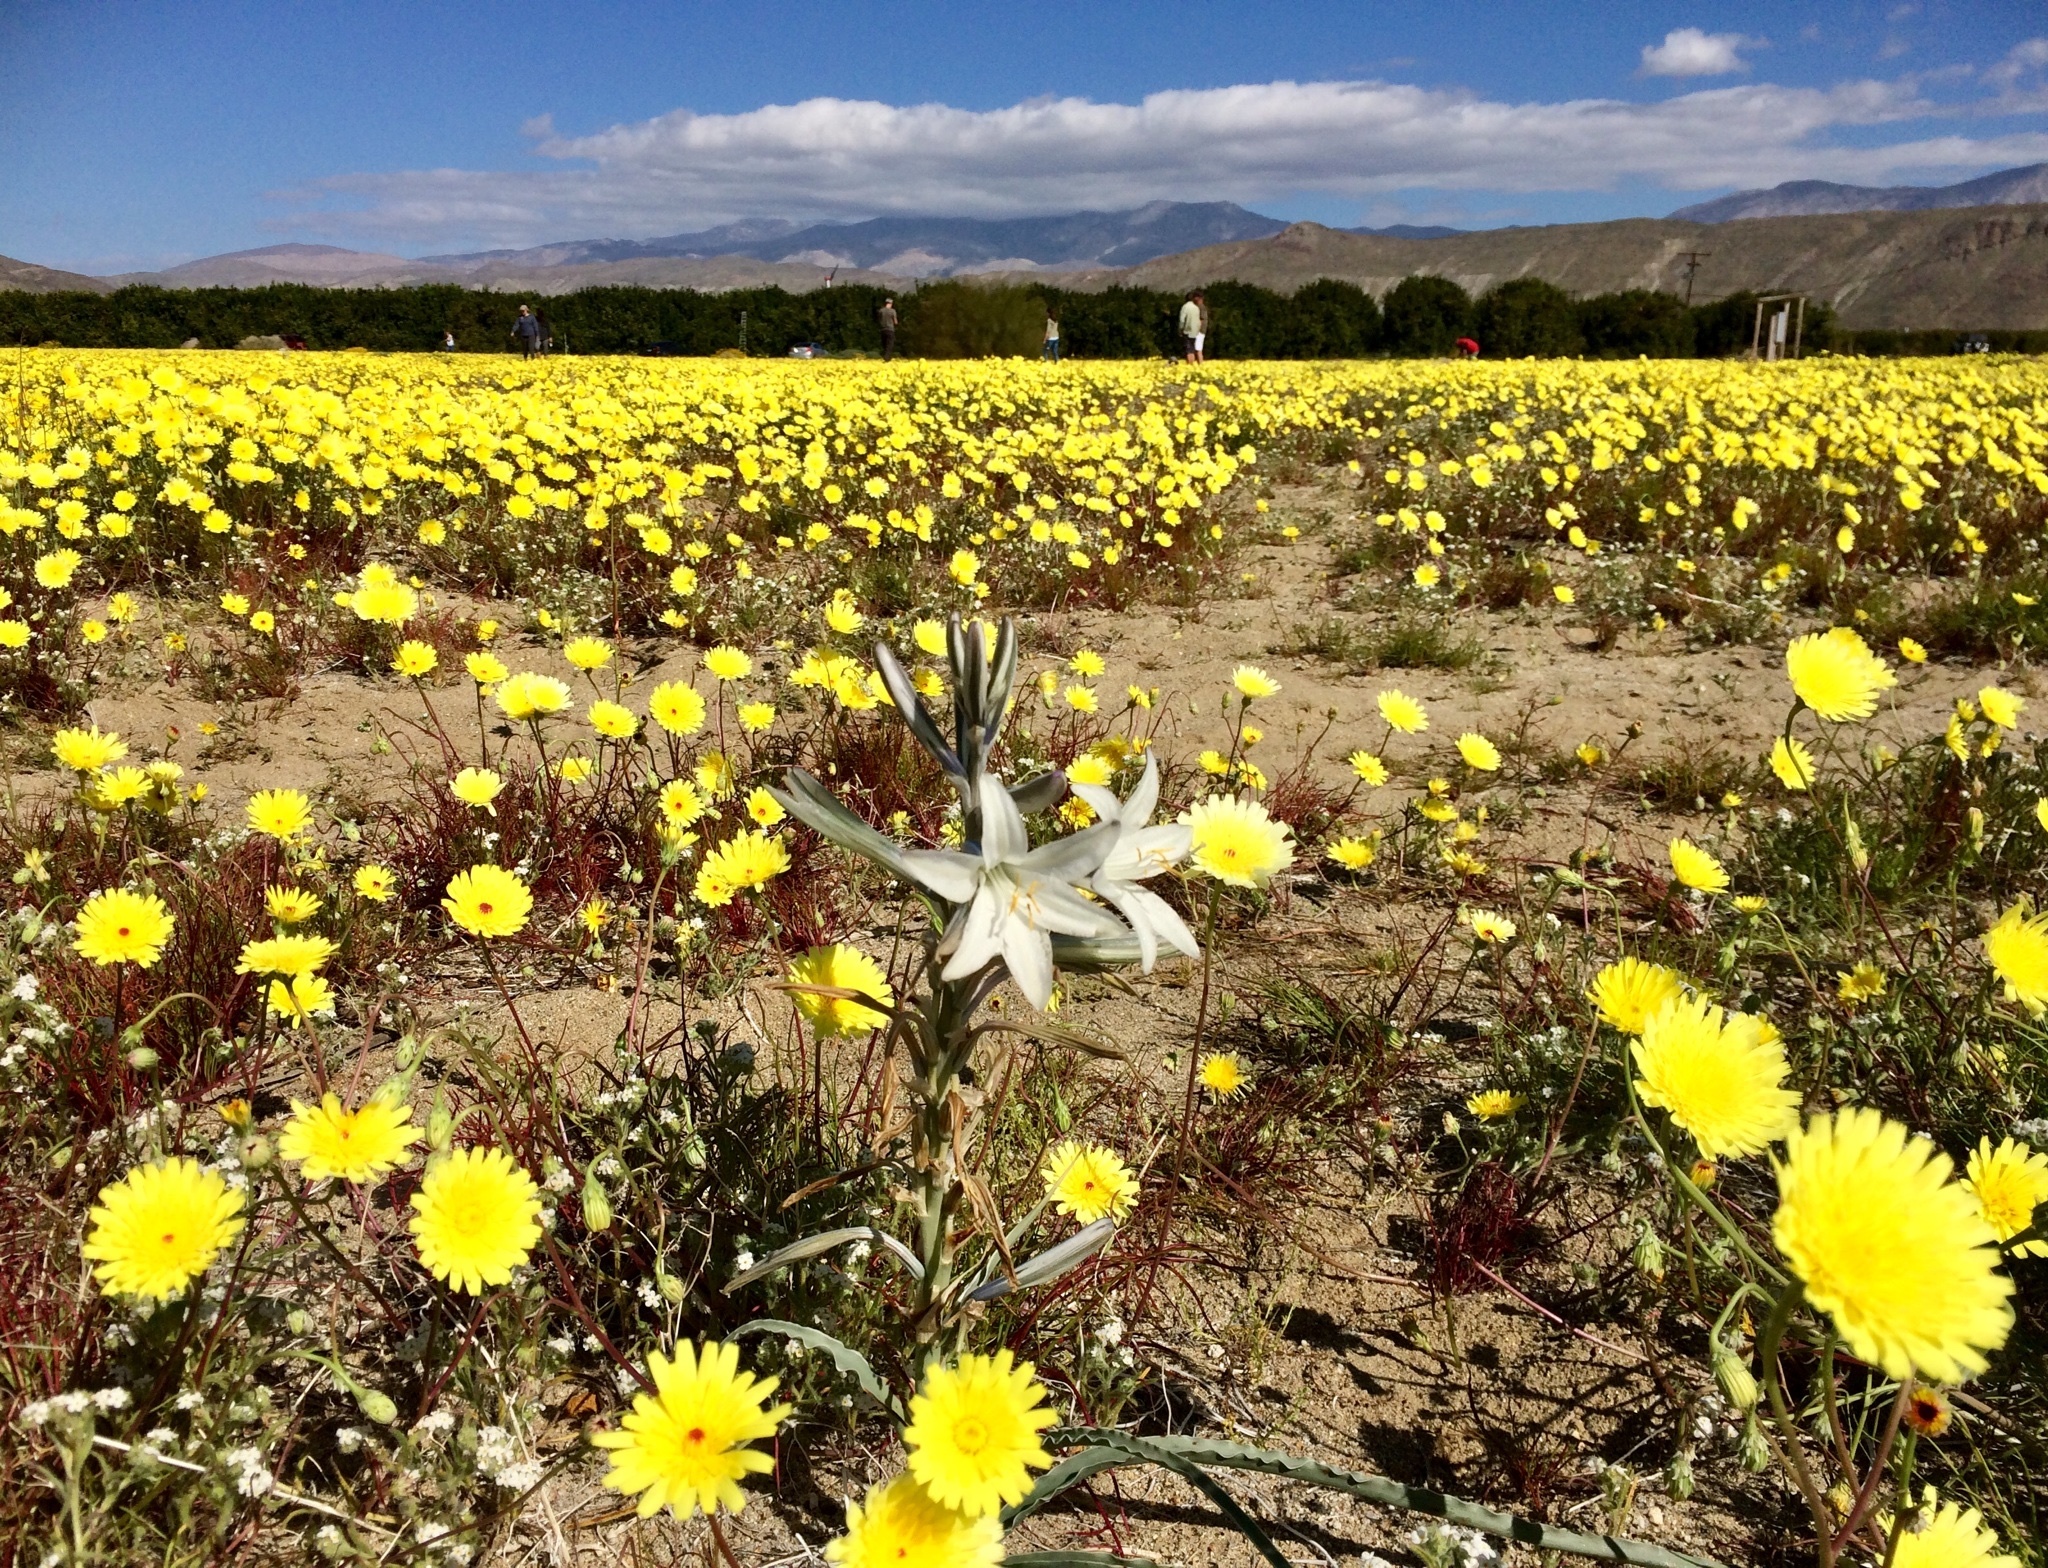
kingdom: Plantae
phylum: Tracheophyta
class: Liliopsida
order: Asparagales
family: Asparagaceae
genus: Hesperocallis
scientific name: Hesperocallis undulata
